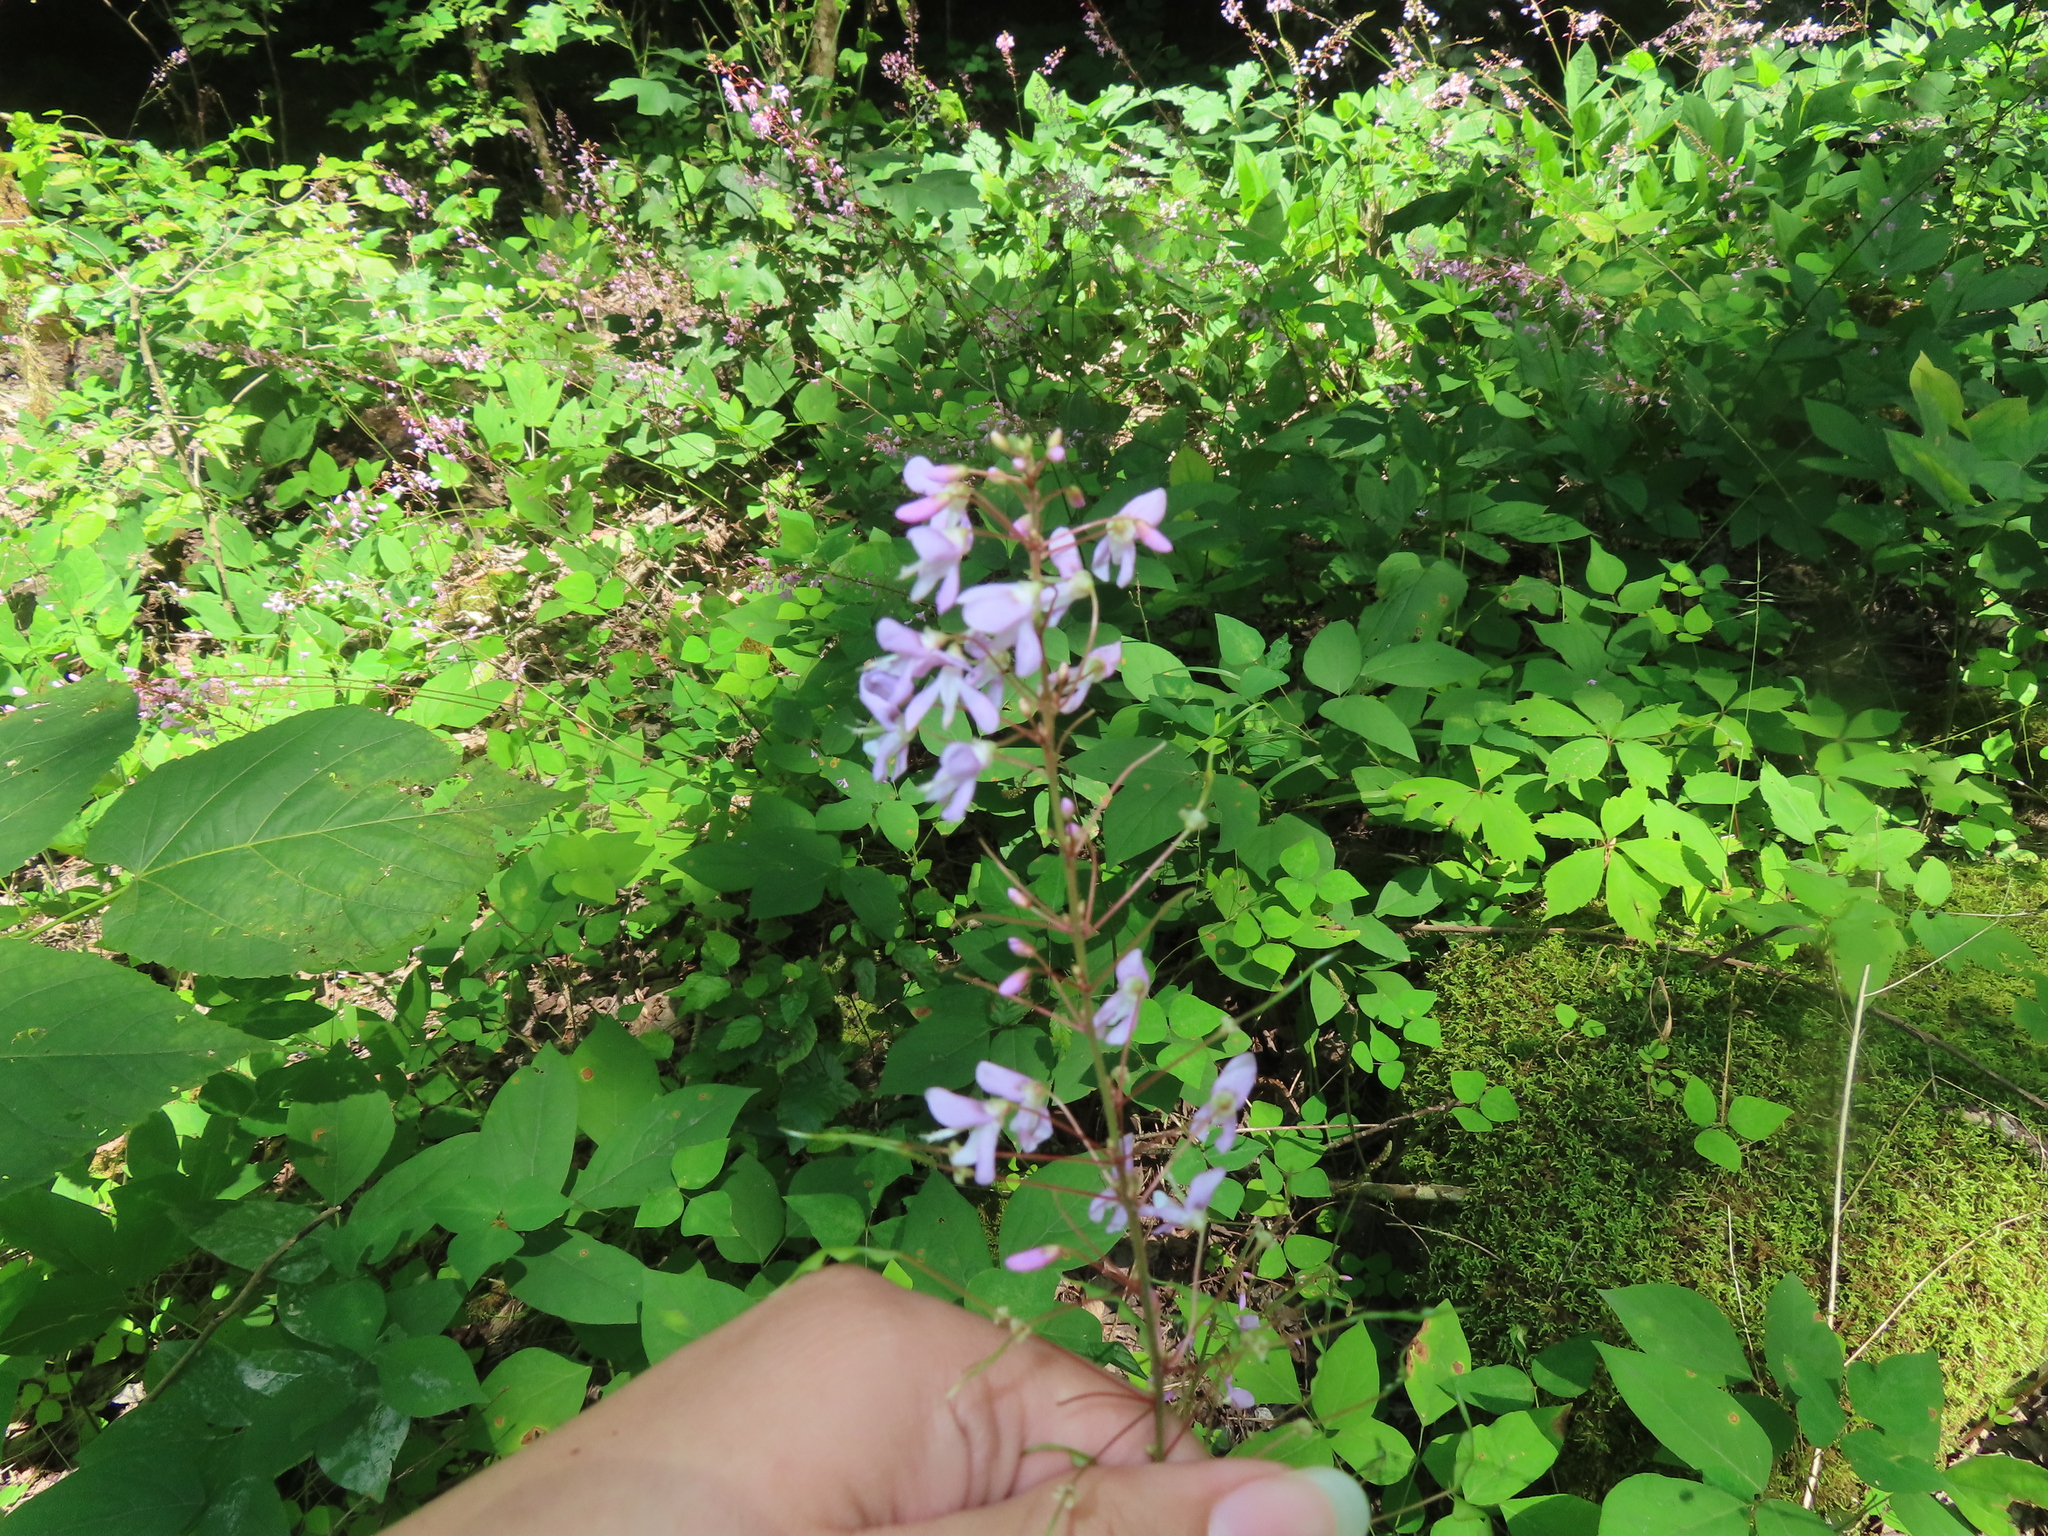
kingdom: Plantae
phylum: Tracheophyta
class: Magnoliopsida
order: Fabales
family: Fabaceae
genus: Hylodesmum
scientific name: Hylodesmum nudiflorum
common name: Bare-stemmed tick-trefoil
